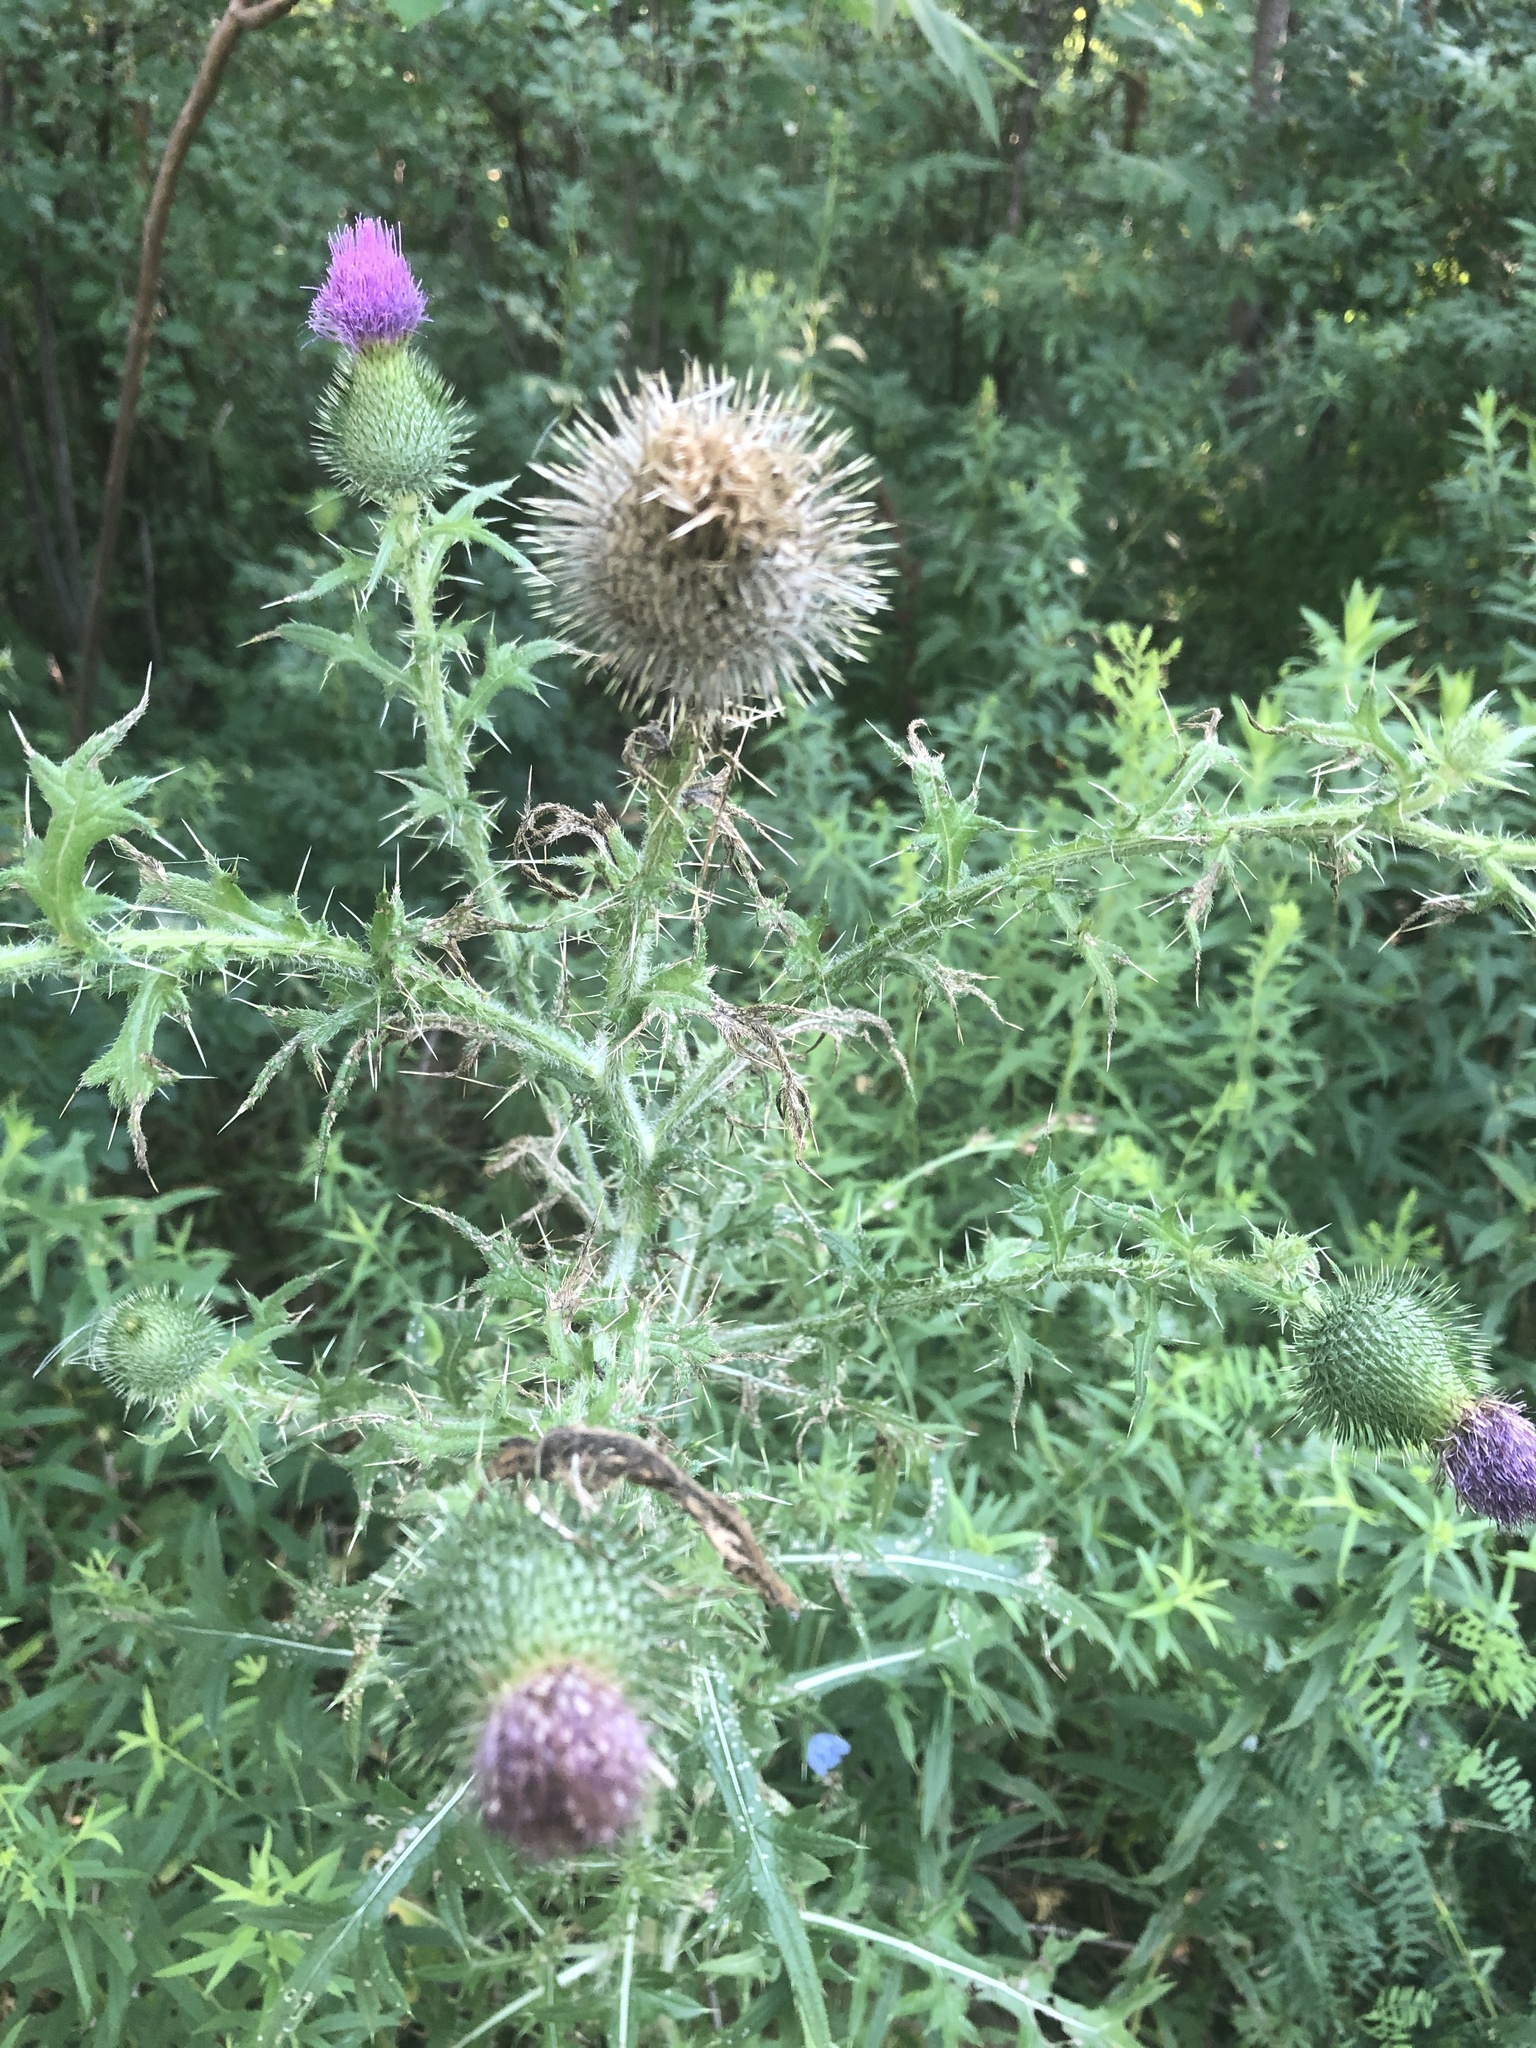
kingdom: Plantae
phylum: Tracheophyta
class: Magnoliopsida
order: Asterales
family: Asteraceae
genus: Cirsium
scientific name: Cirsium vulgare
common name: Bull thistle
